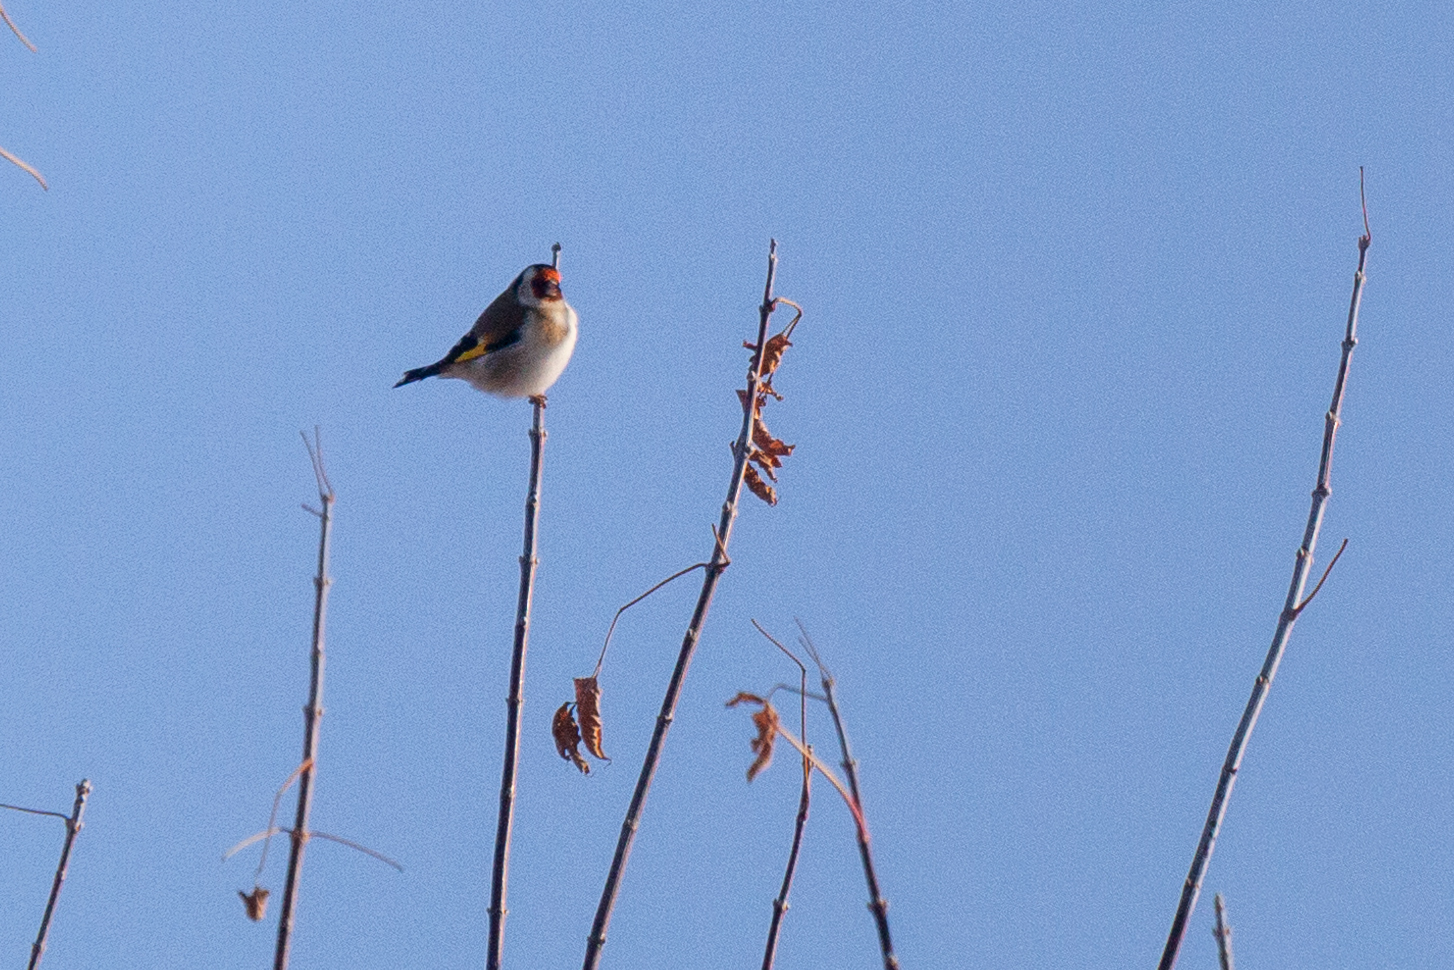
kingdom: Animalia
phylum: Chordata
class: Aves
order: Passeriformes
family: Fringillidae
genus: Carduelis
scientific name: Carduelis carduelis
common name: European goldfinch
